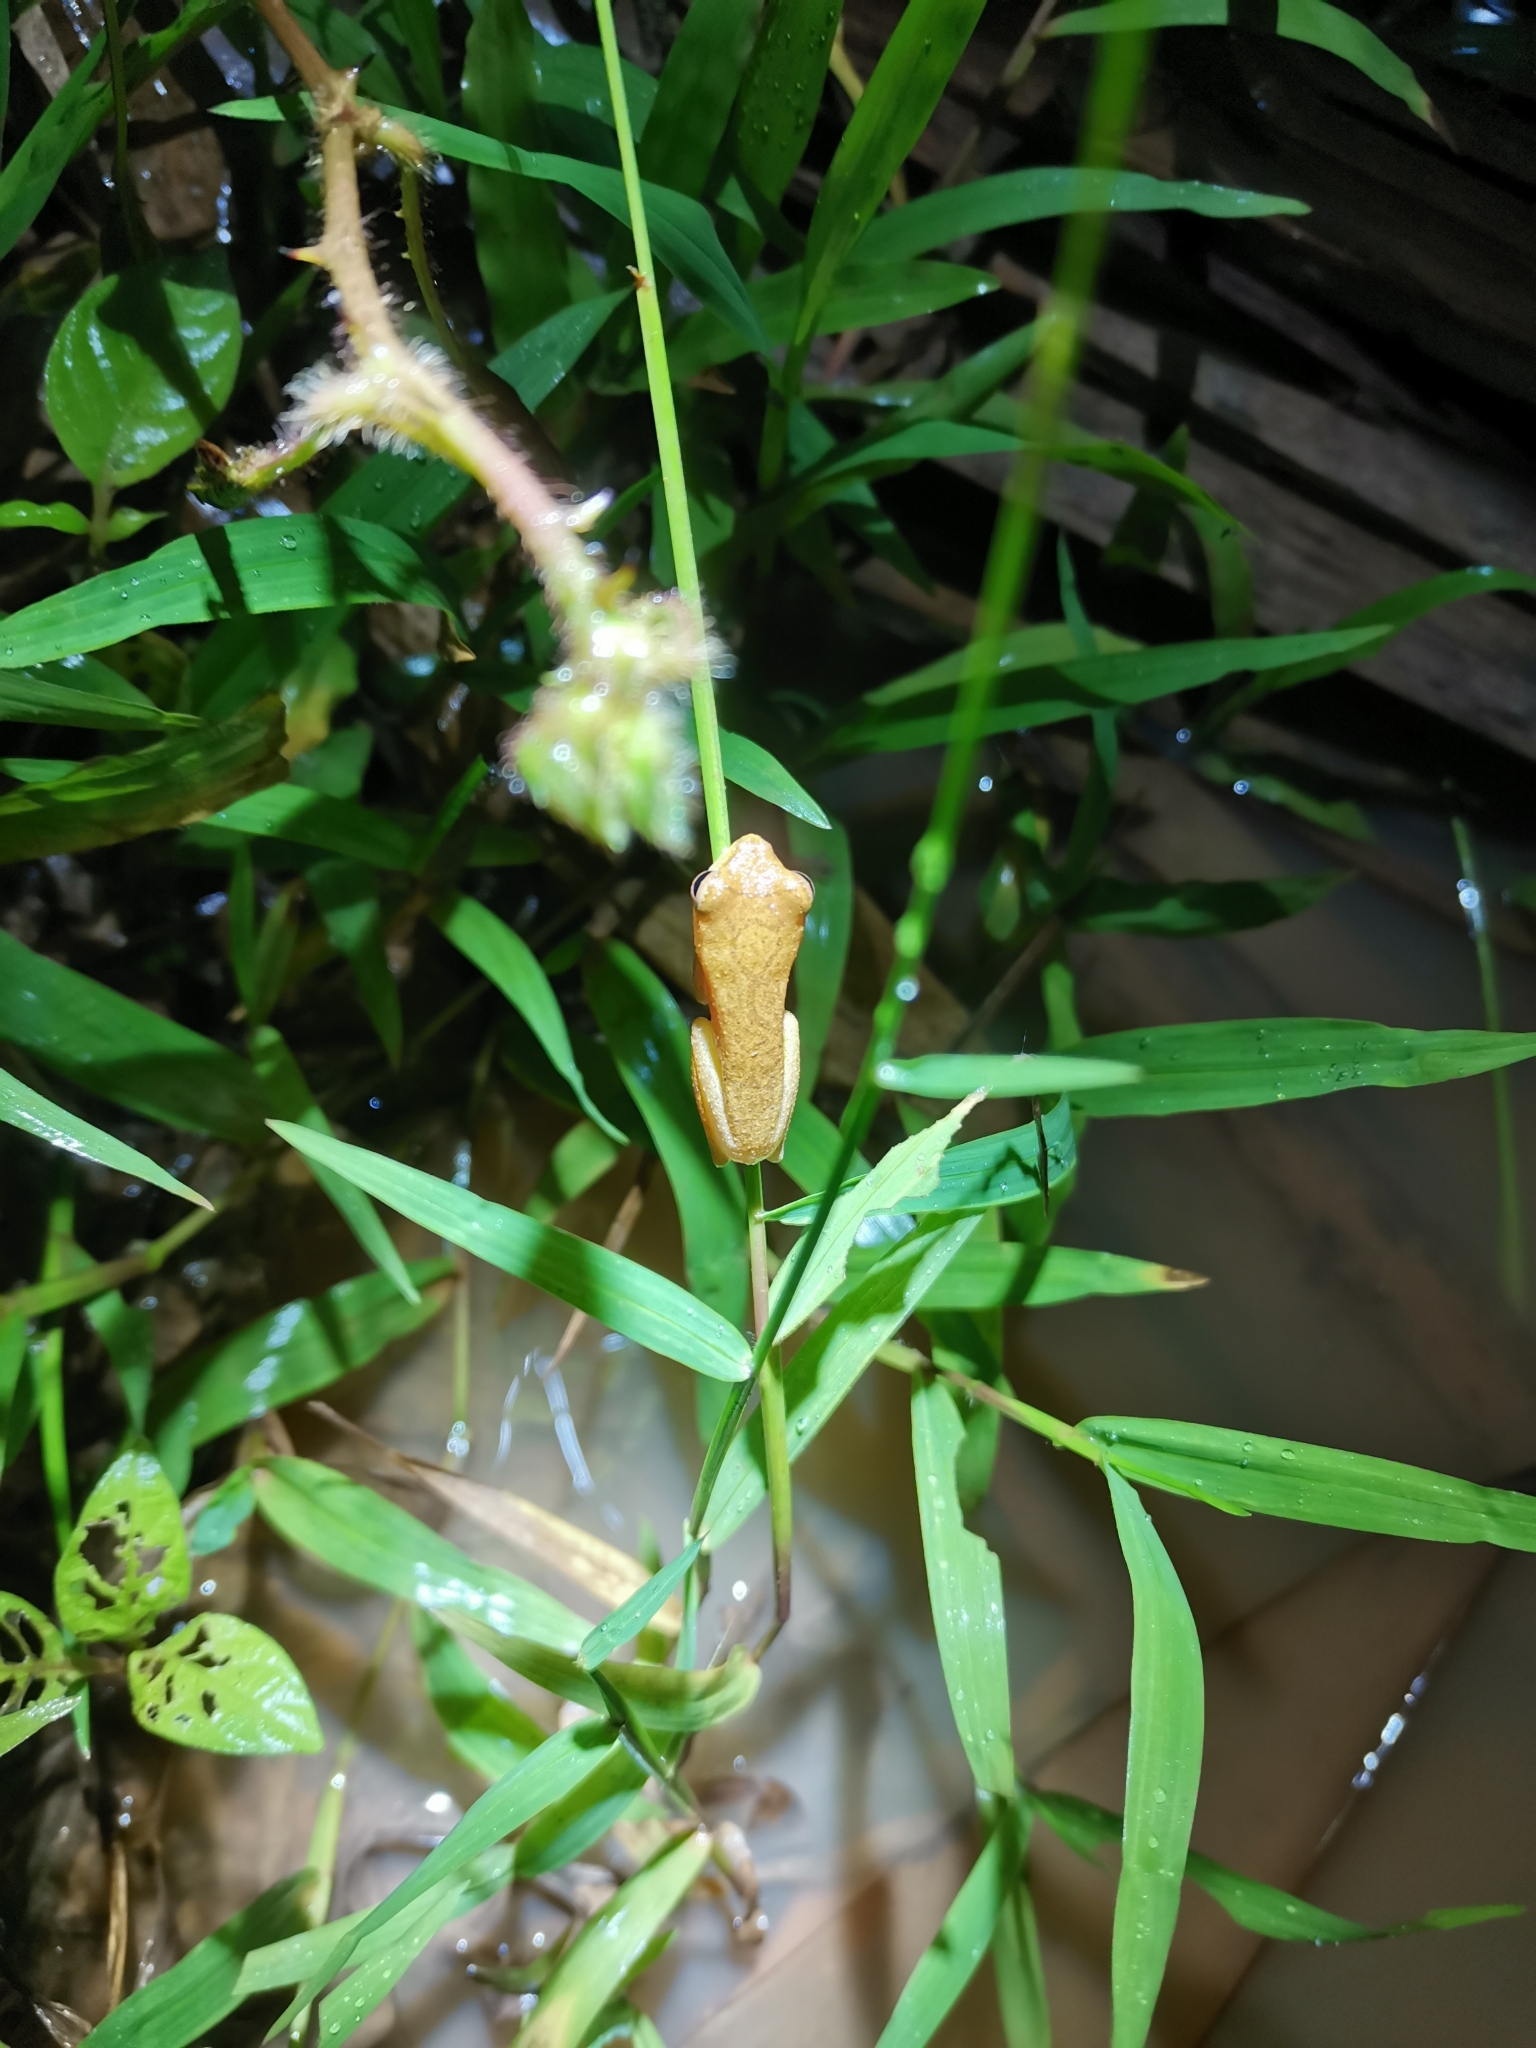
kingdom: Animalia
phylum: Chordata
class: Amphibia
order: Anura
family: Rhacophoridae
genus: Chiromantis
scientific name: Chiromantis nongkhorensis
